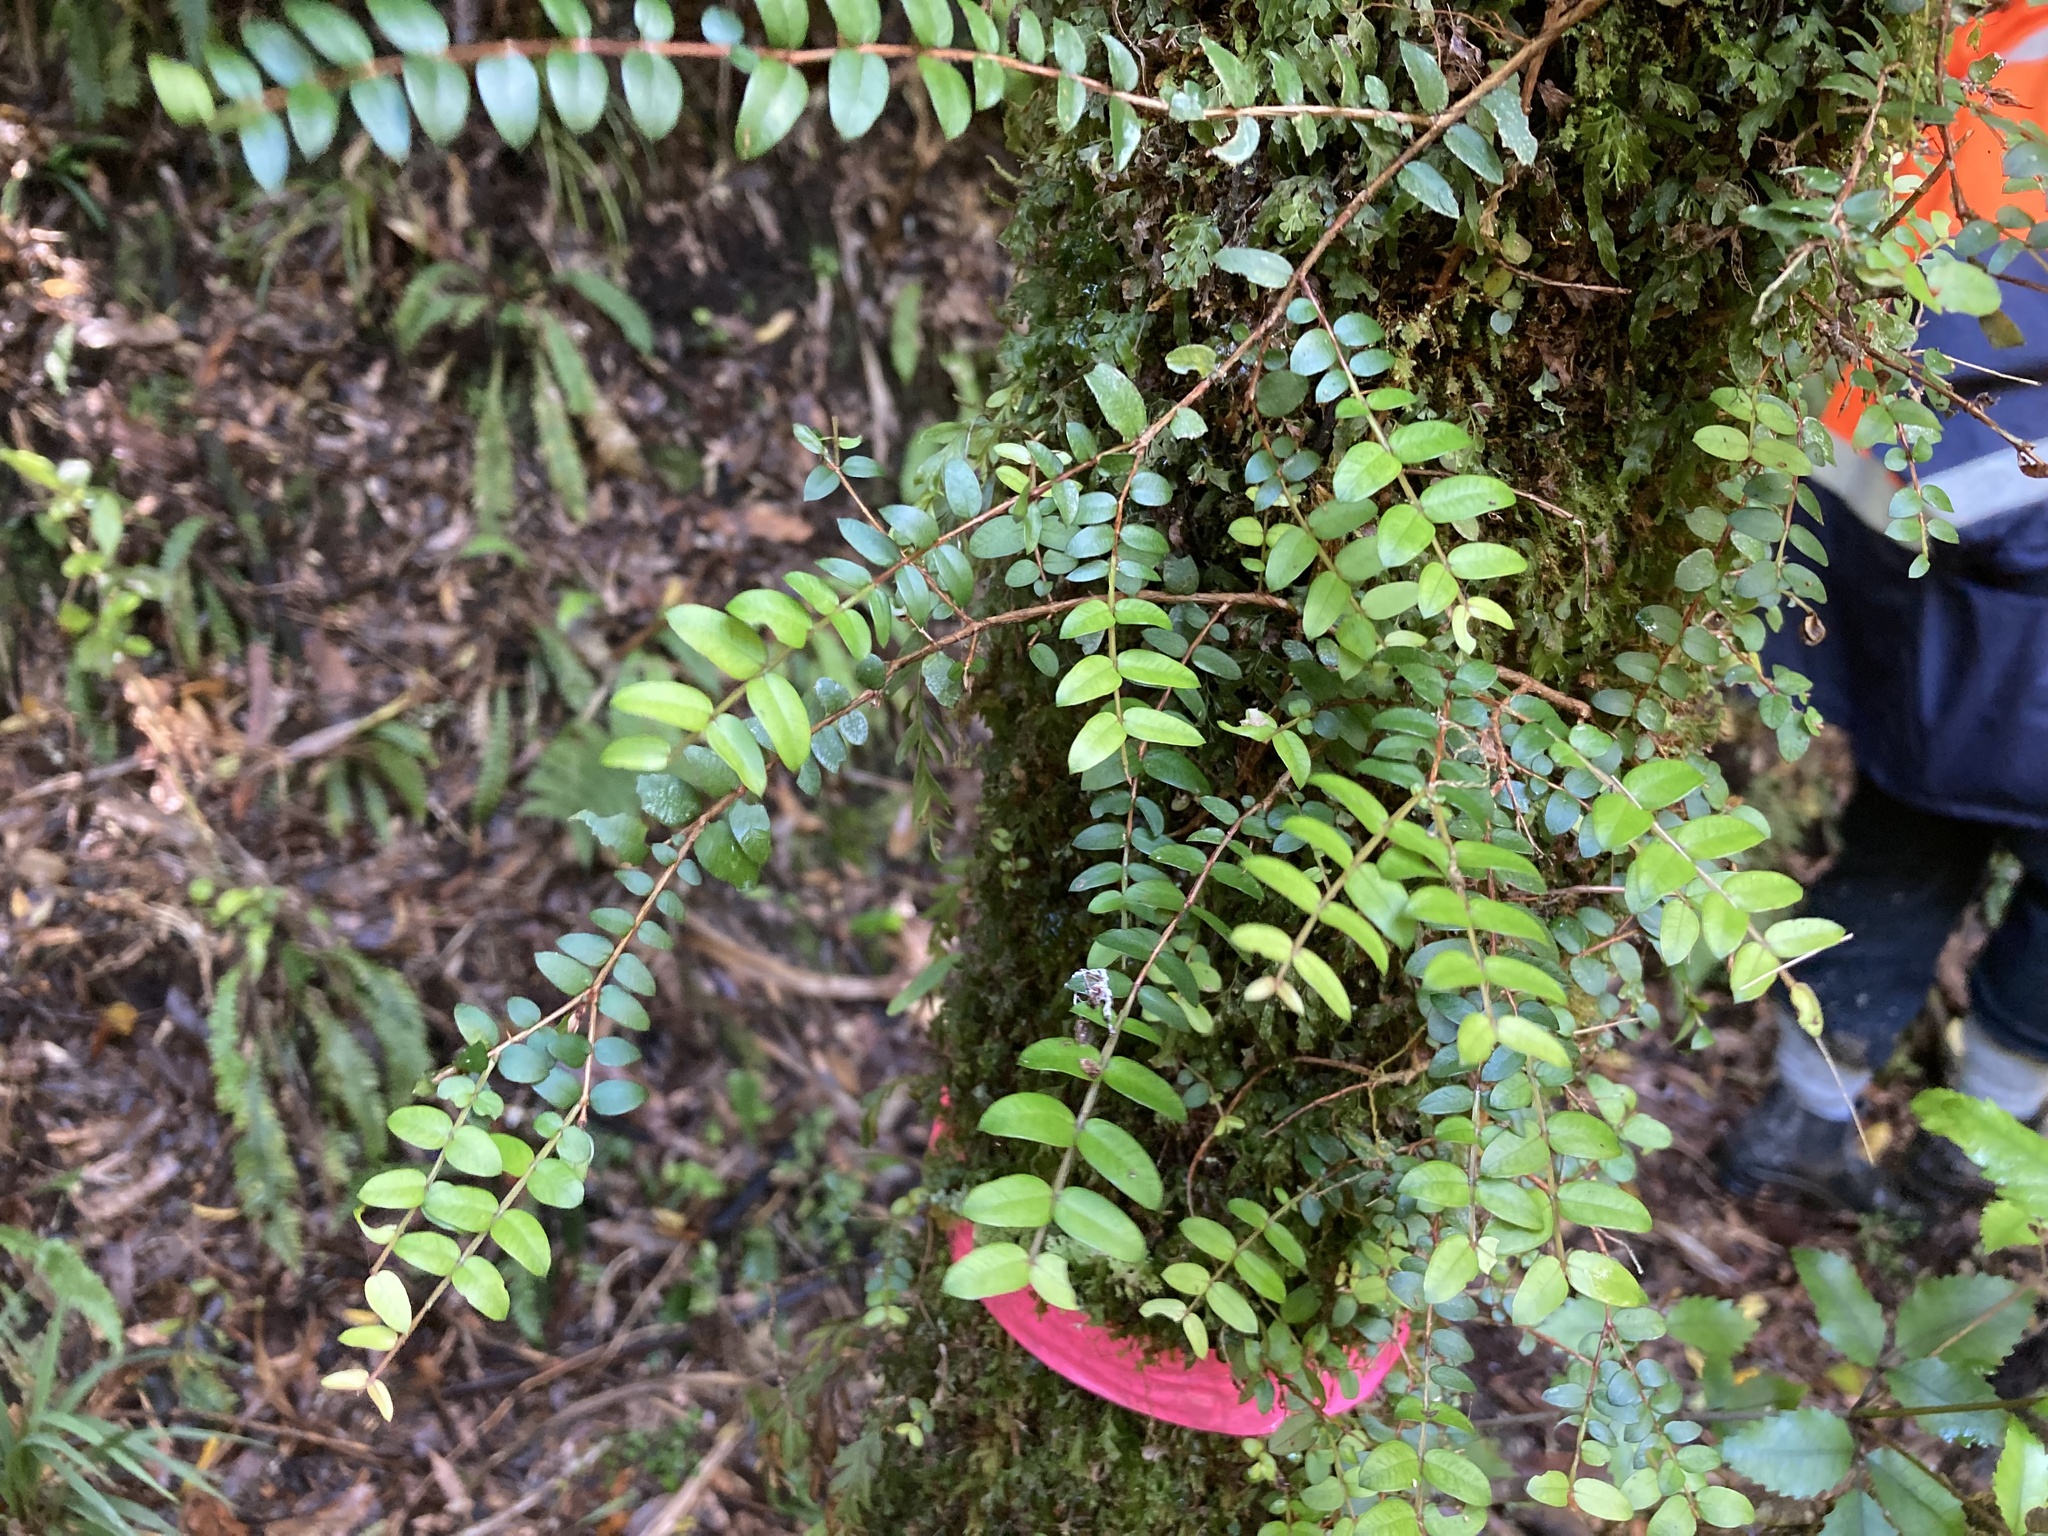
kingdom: Plantae
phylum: Tracheophyta
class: Magnoliopsida
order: Myrtales
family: Myrtaceae
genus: Metrosideros
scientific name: Metrosideros diffusa
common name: Small ratavine
